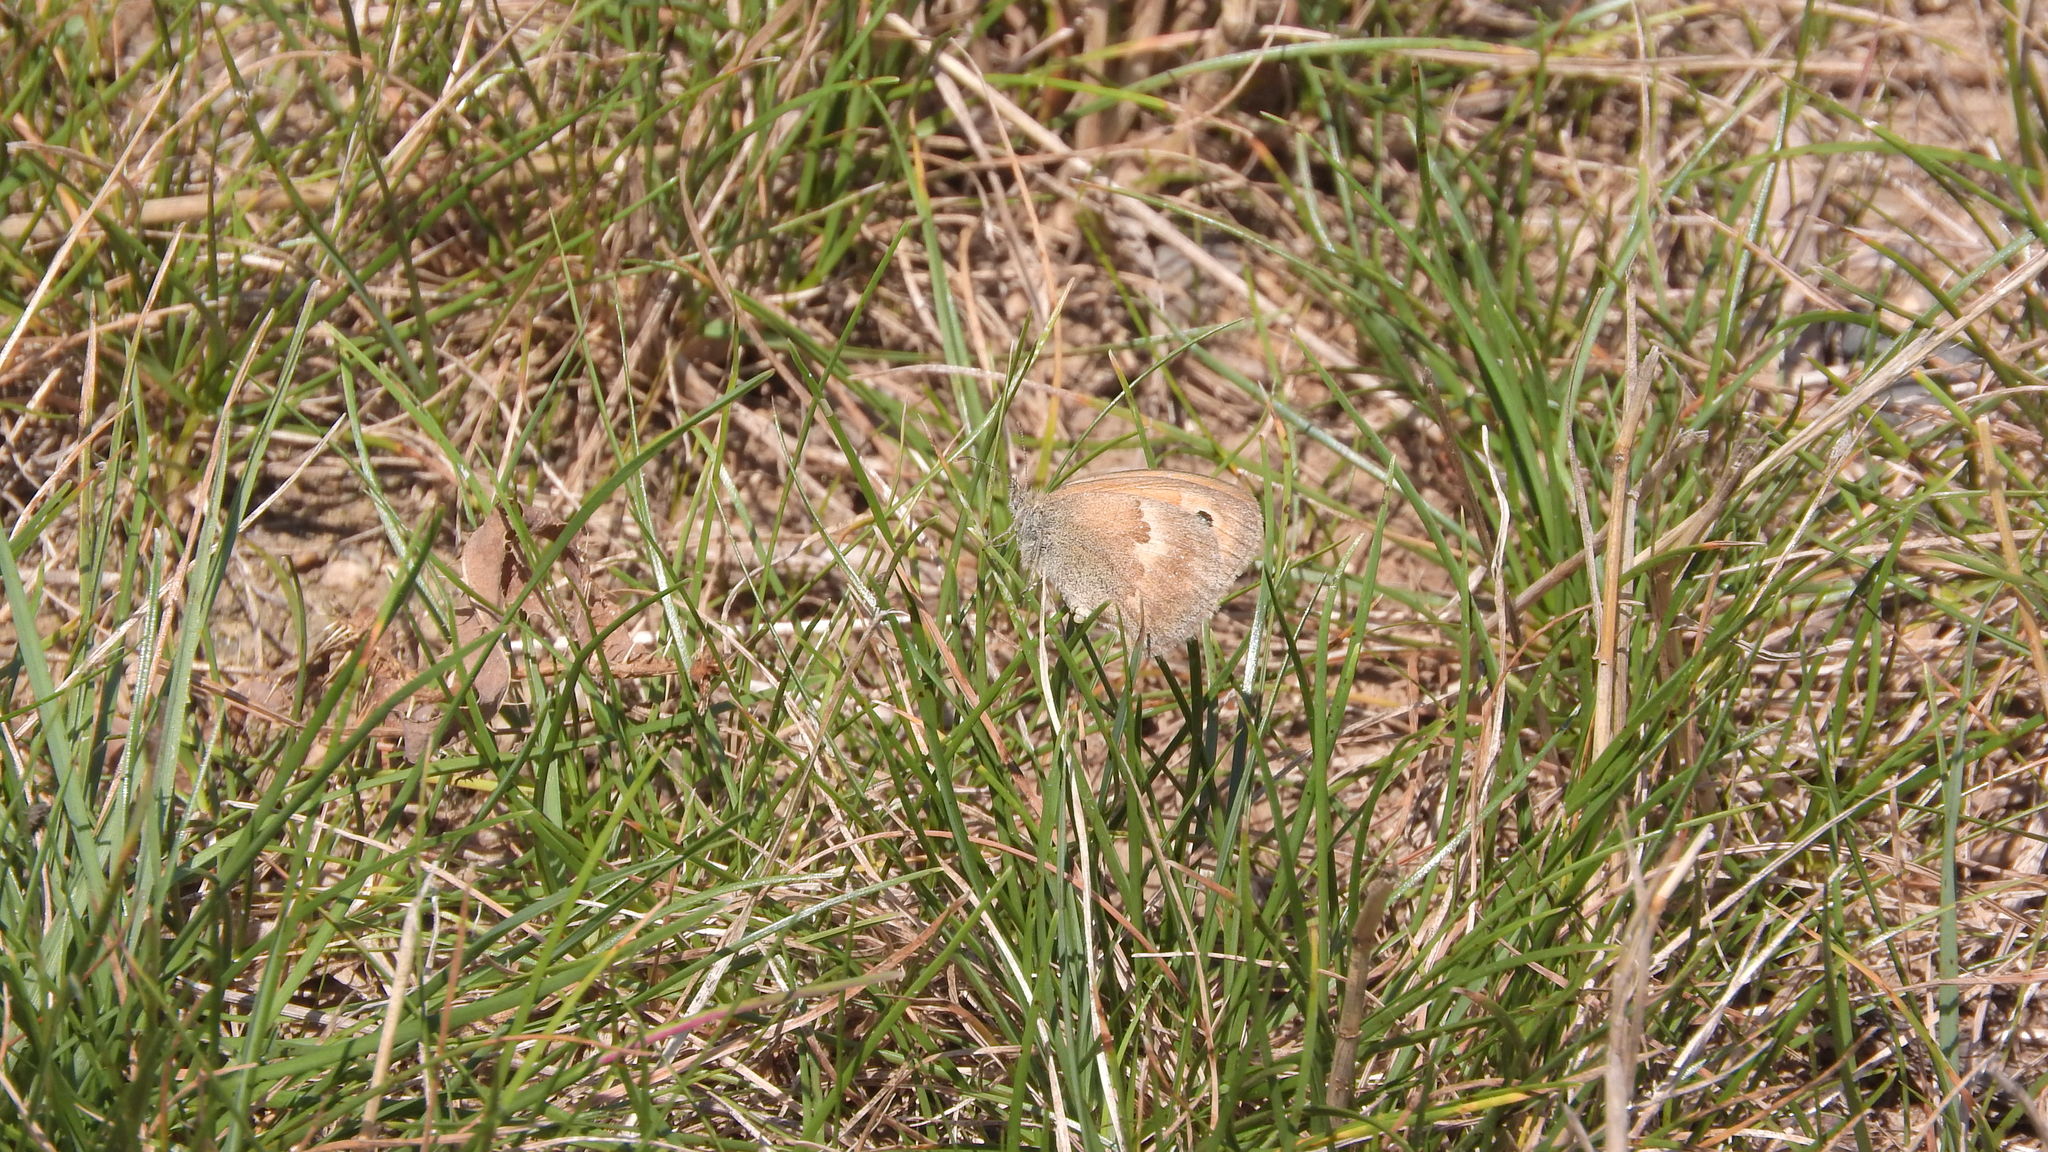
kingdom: Animalia
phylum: Arthropoda
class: Insecta
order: Lepidoptera
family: Nymphalidae
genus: Coenonympha
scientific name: Coenonympha pamphilus
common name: Small heath
